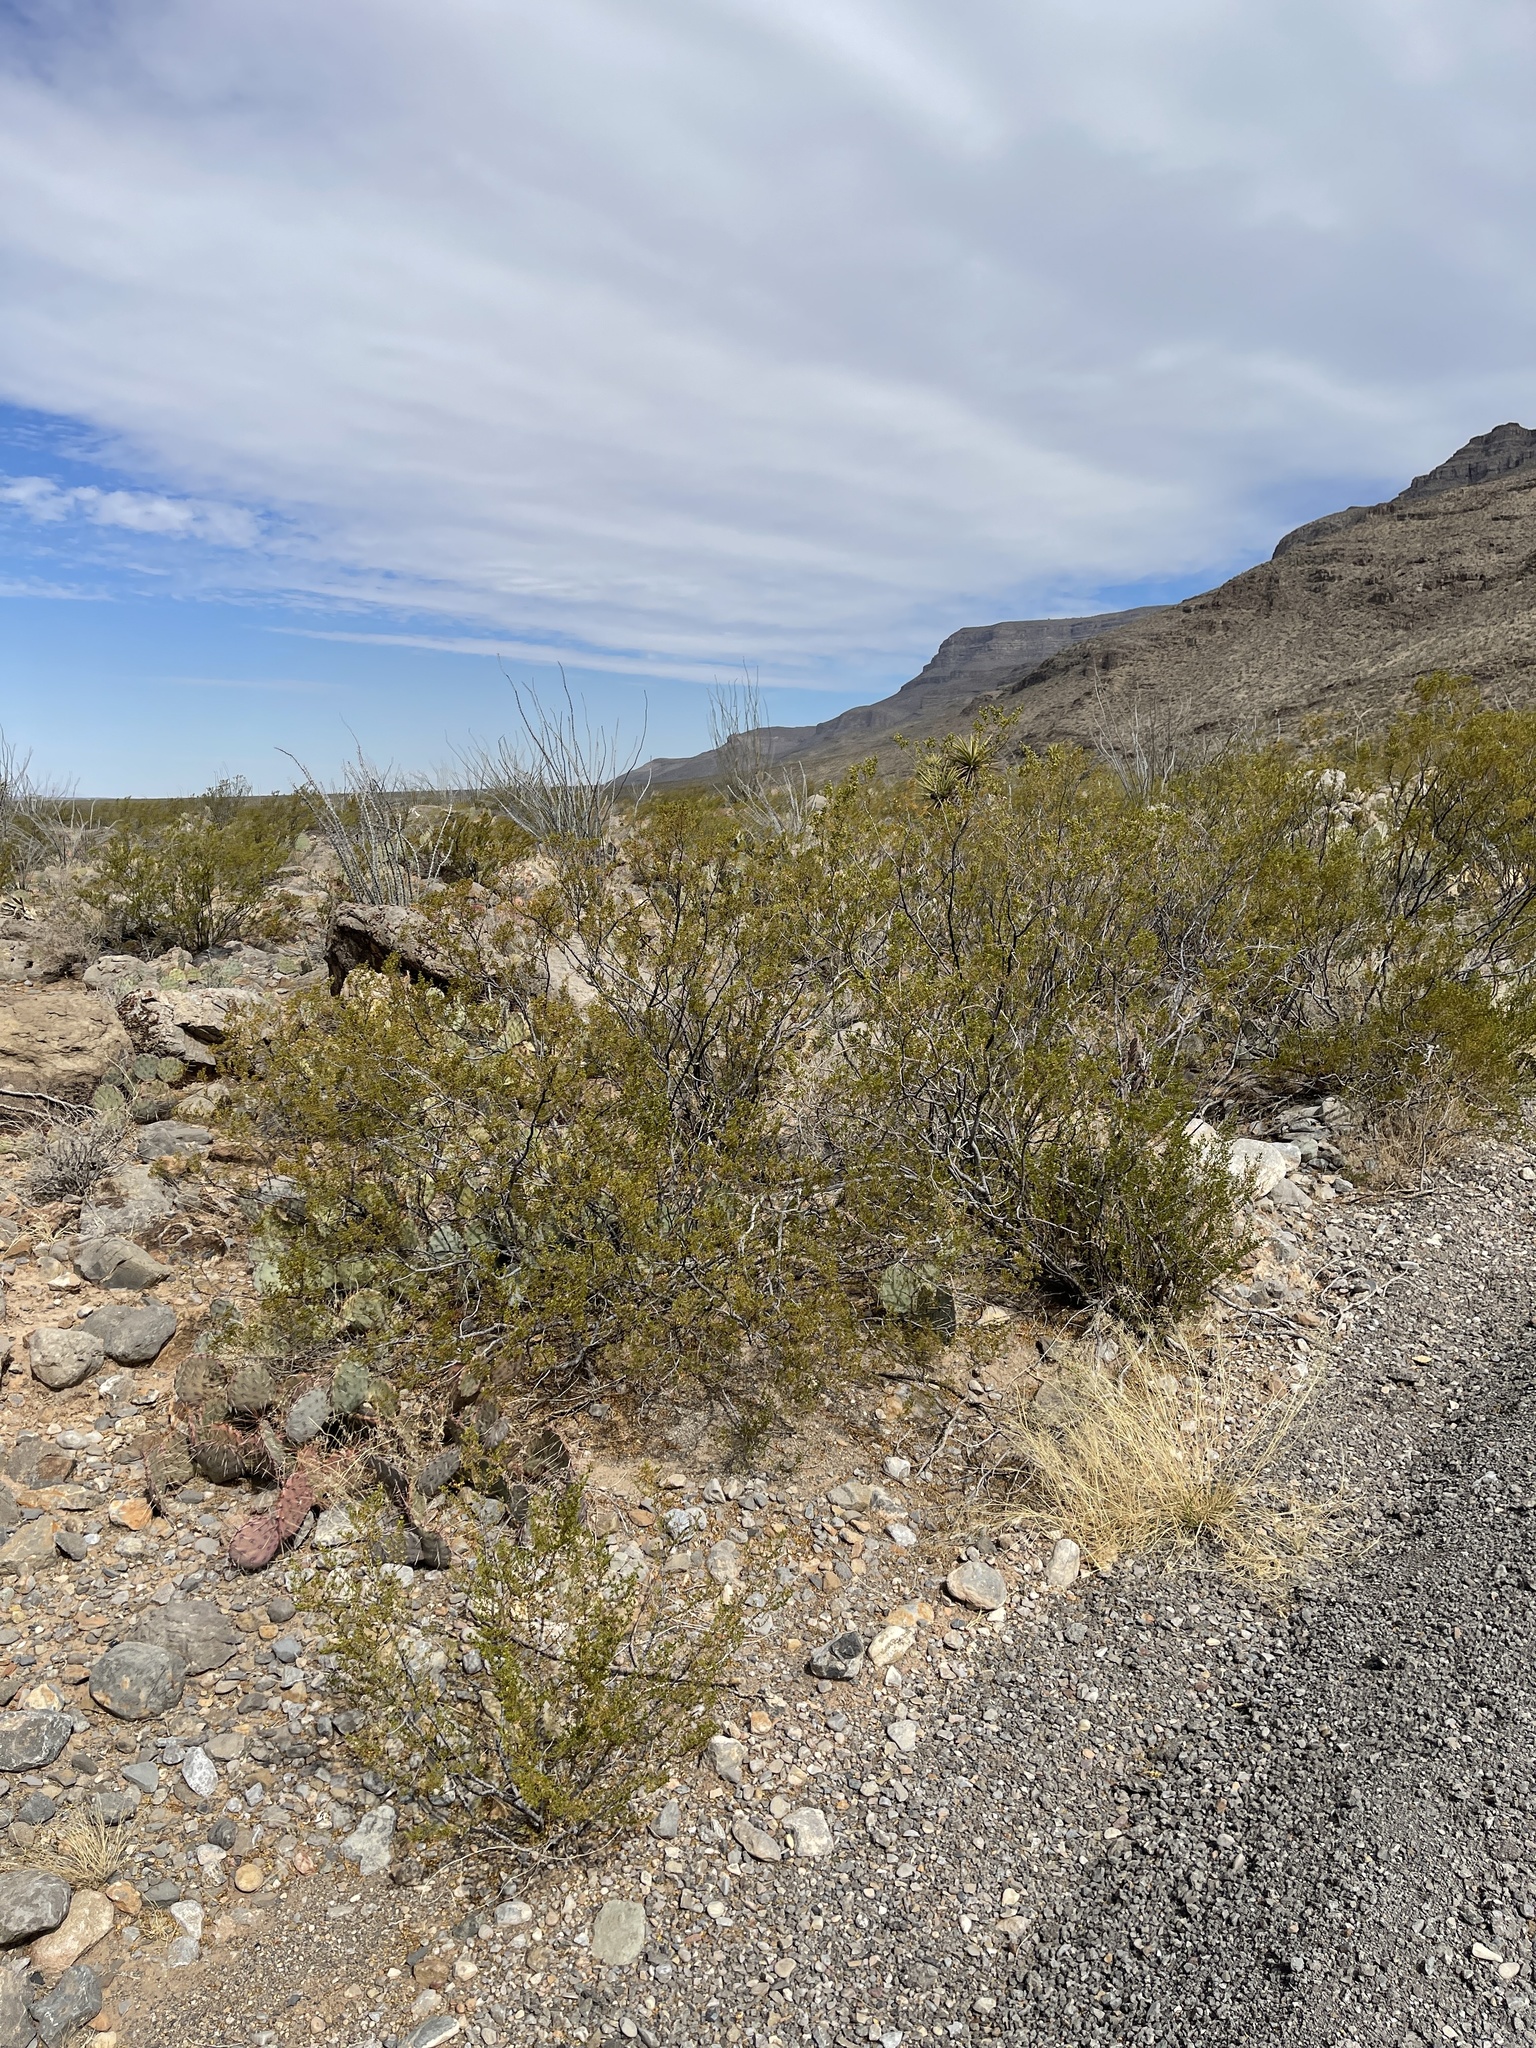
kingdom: Plantae
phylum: Tracheophyta
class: Magnoliopsida
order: Zygophyllales
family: Zygophyllaceae
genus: Larrea
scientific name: Larrea tridentata
